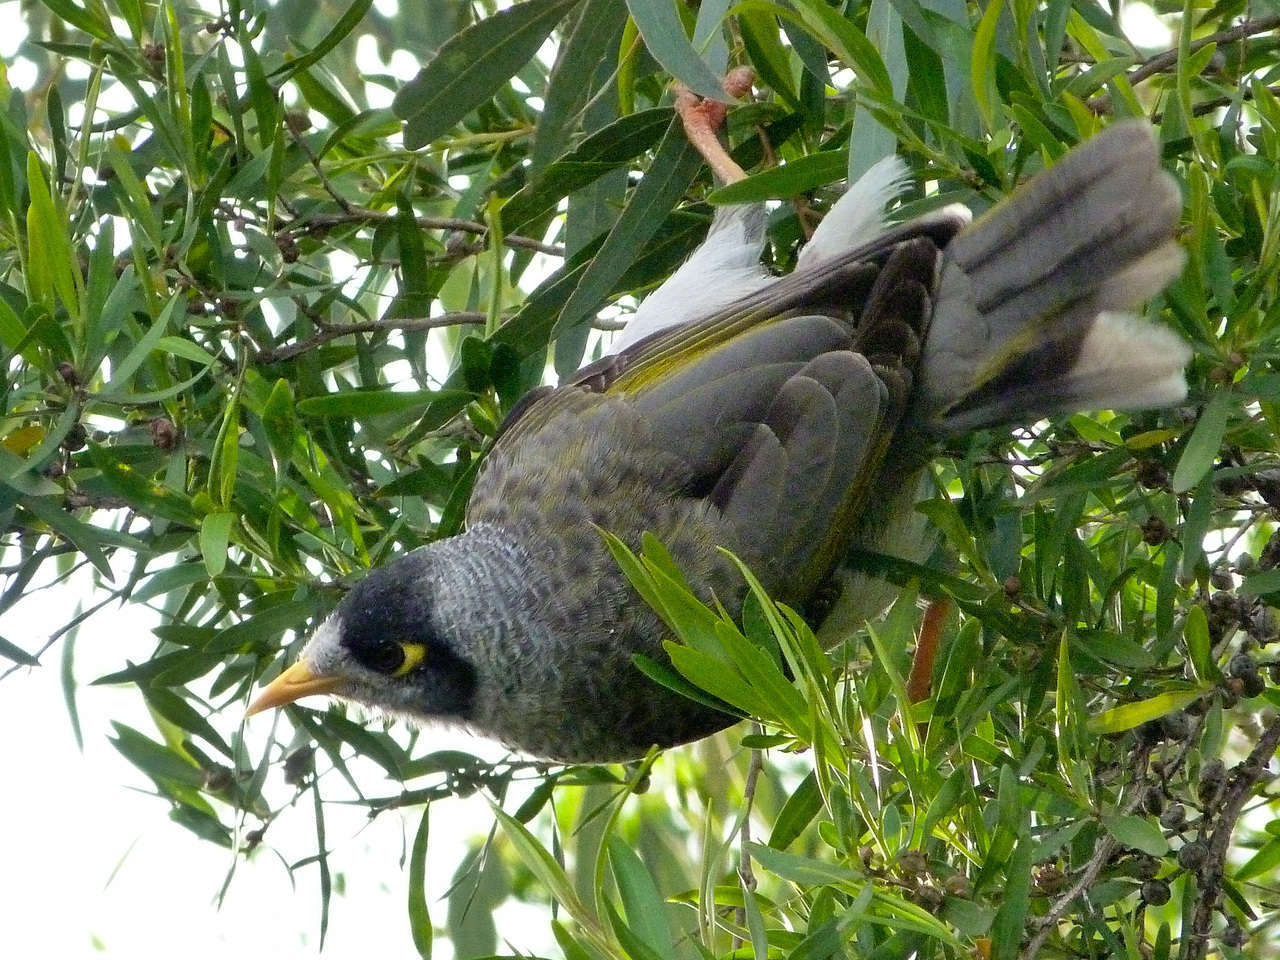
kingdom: Animalia
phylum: Chordata
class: Aves
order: Passeriformes
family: Meliphagidae
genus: Manorina
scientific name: Manorina melanocephala
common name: Noisy miner
